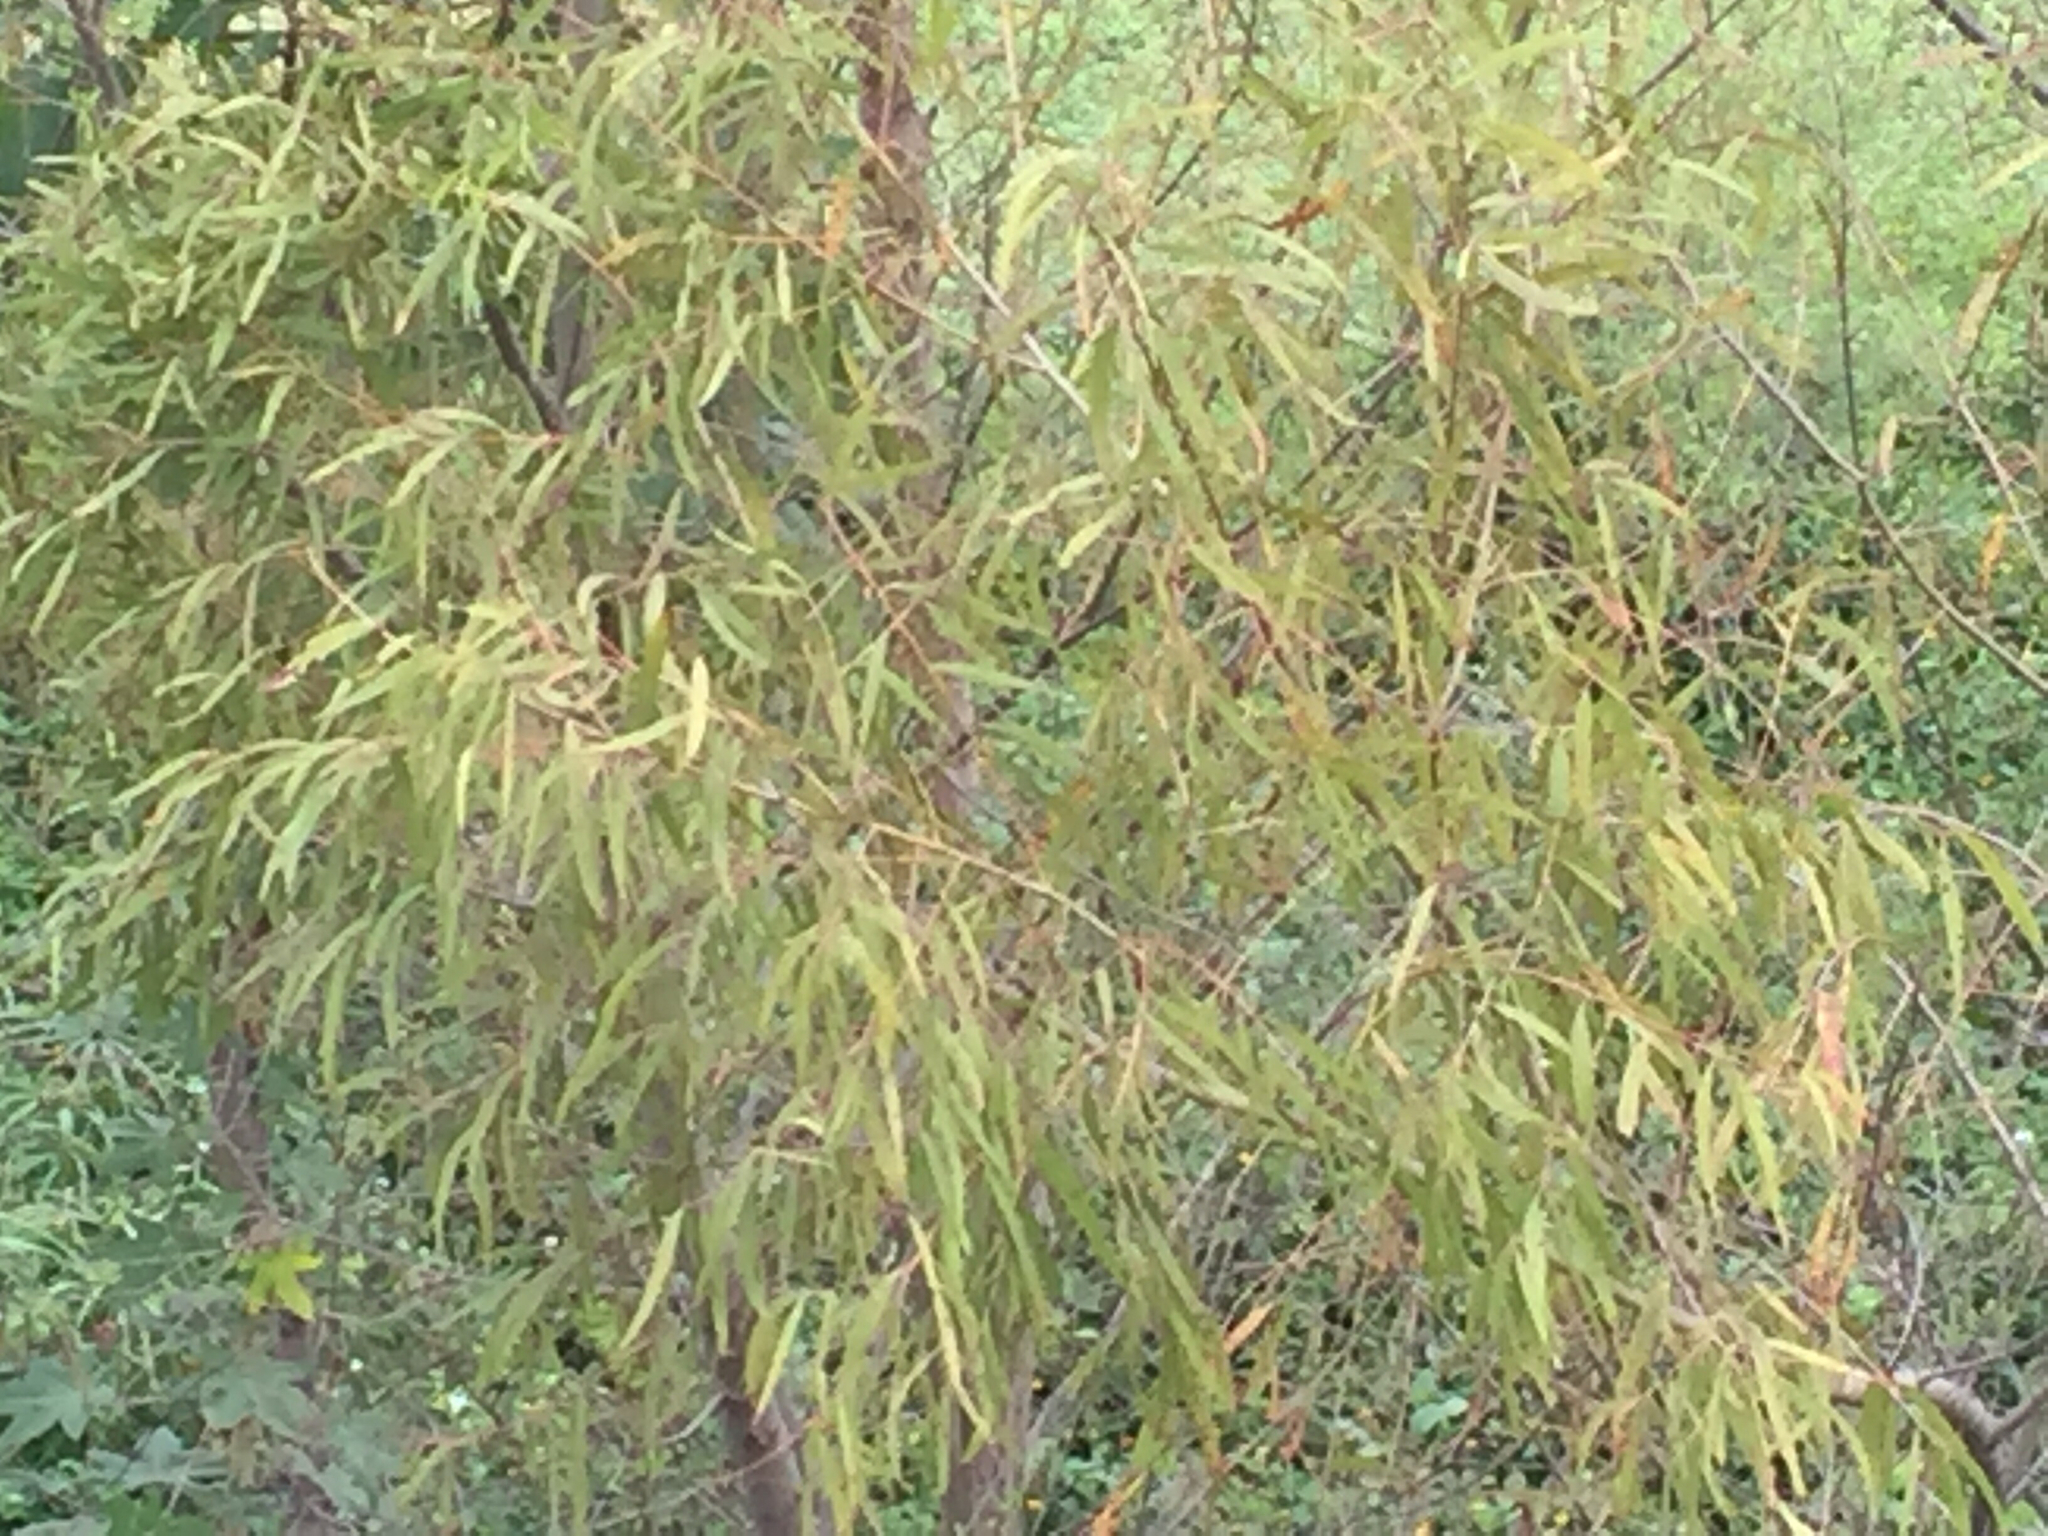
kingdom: Plantae
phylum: Tracheophyta
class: Magnoliopsida
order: Malpighiales
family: Salicaceae
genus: Salix
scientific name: Salix nigra
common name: Black willow
